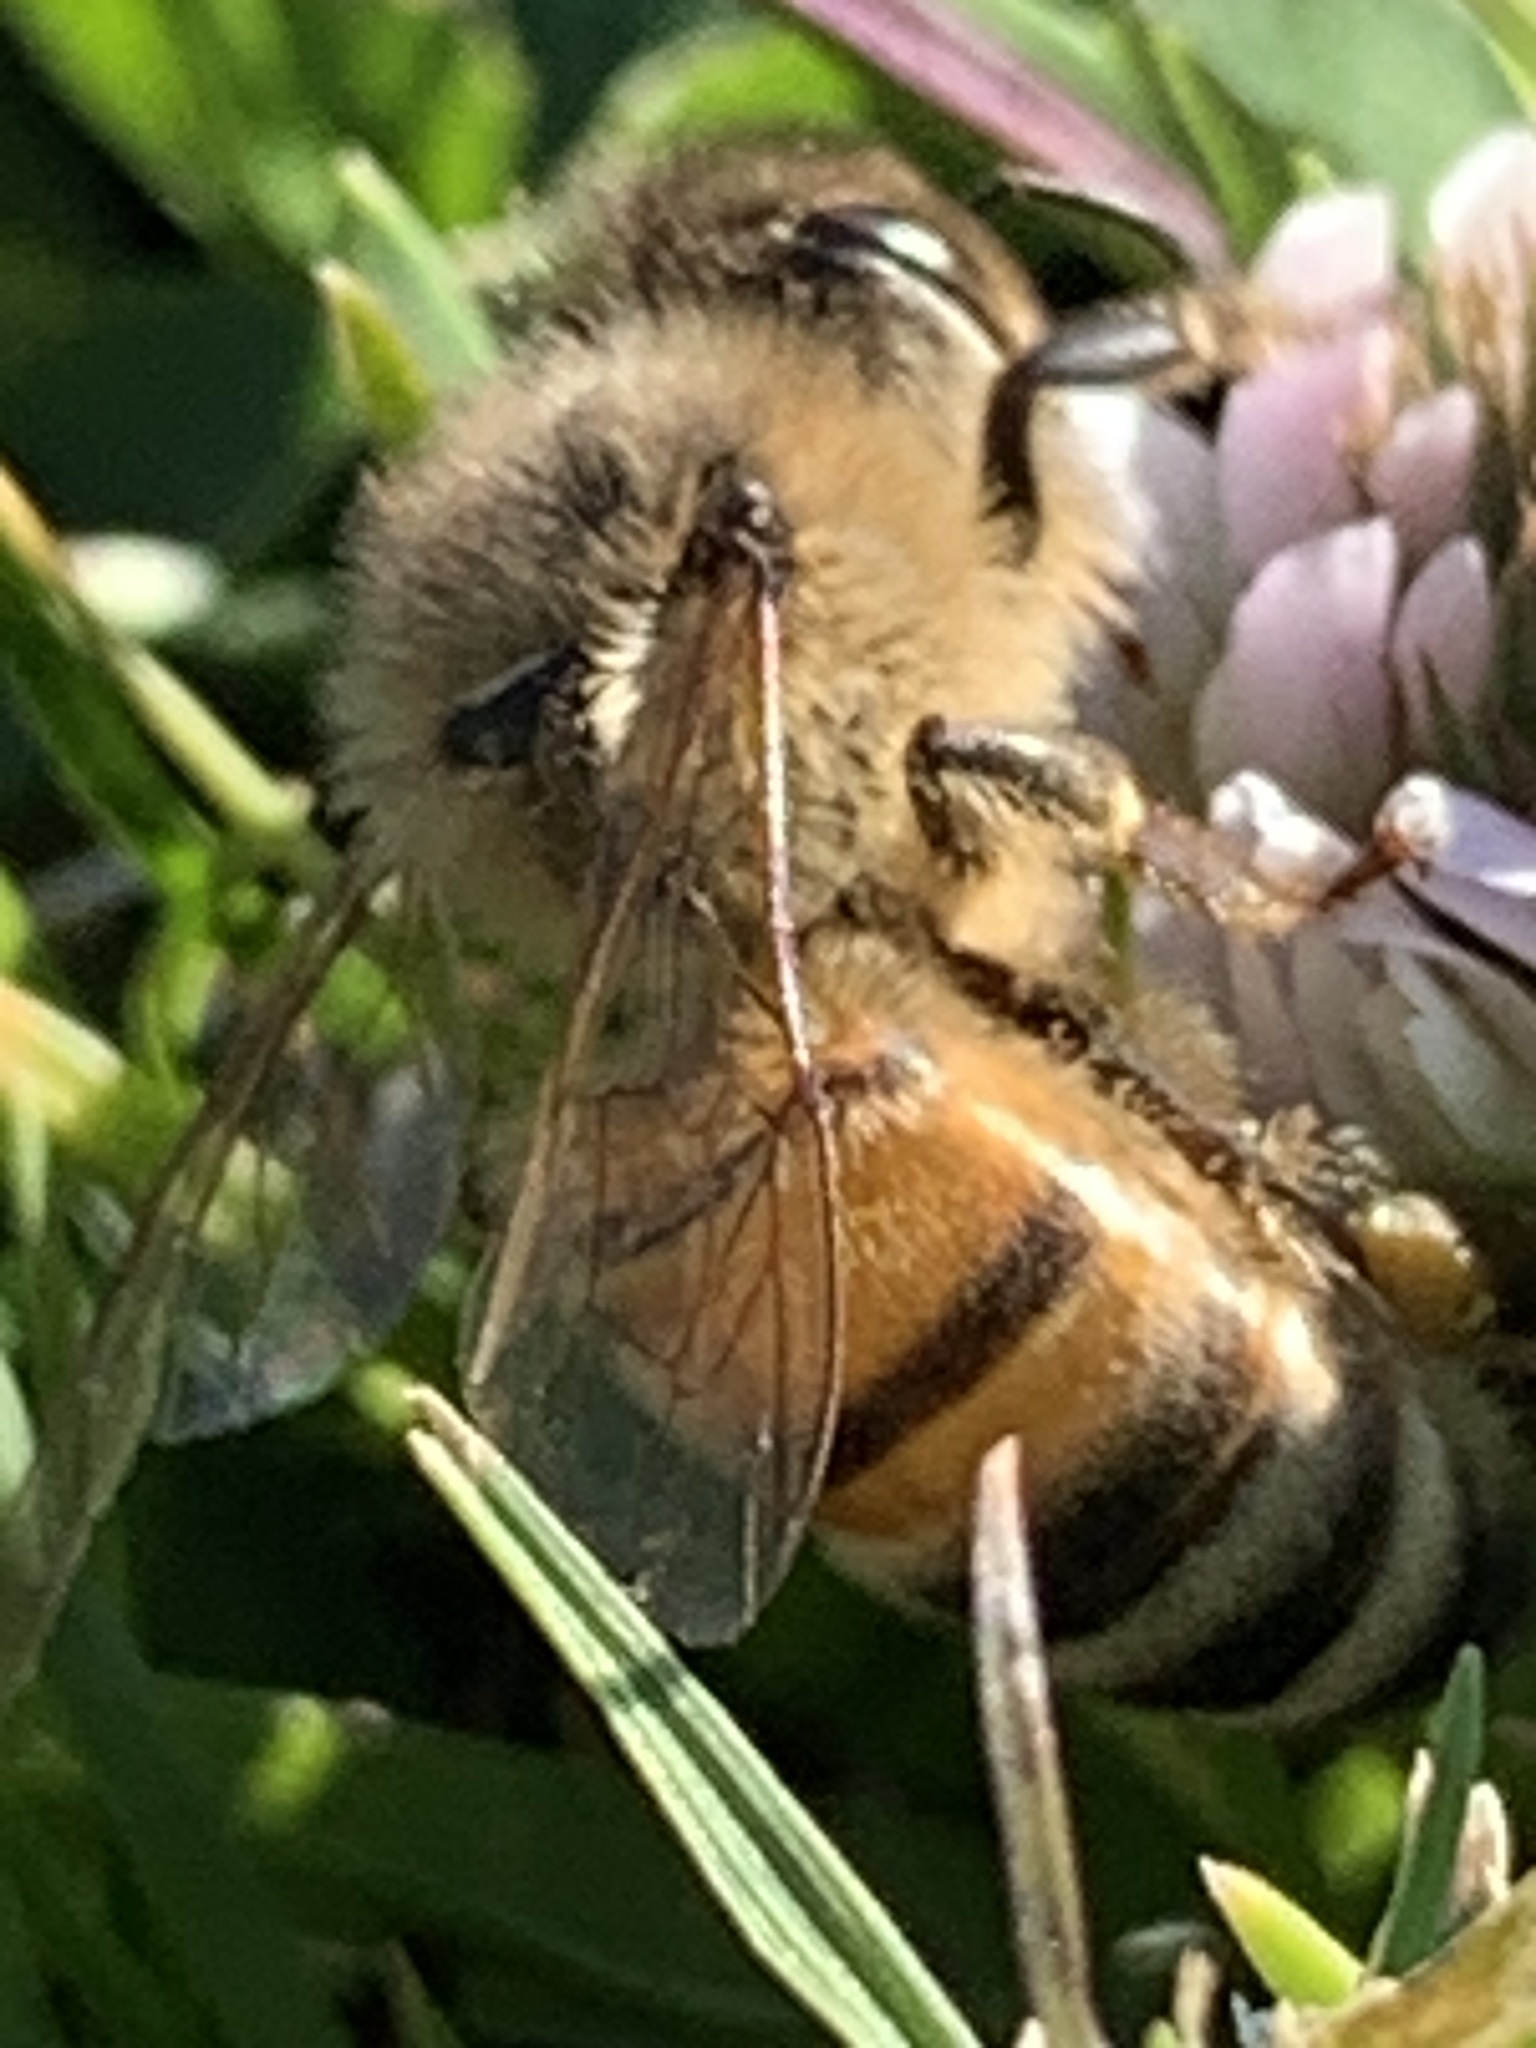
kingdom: Animalia
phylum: Arthropoda
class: Insecta
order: Hymenoptera
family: Apidae
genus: Apis
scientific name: Apis mellifera
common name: Honey bee
